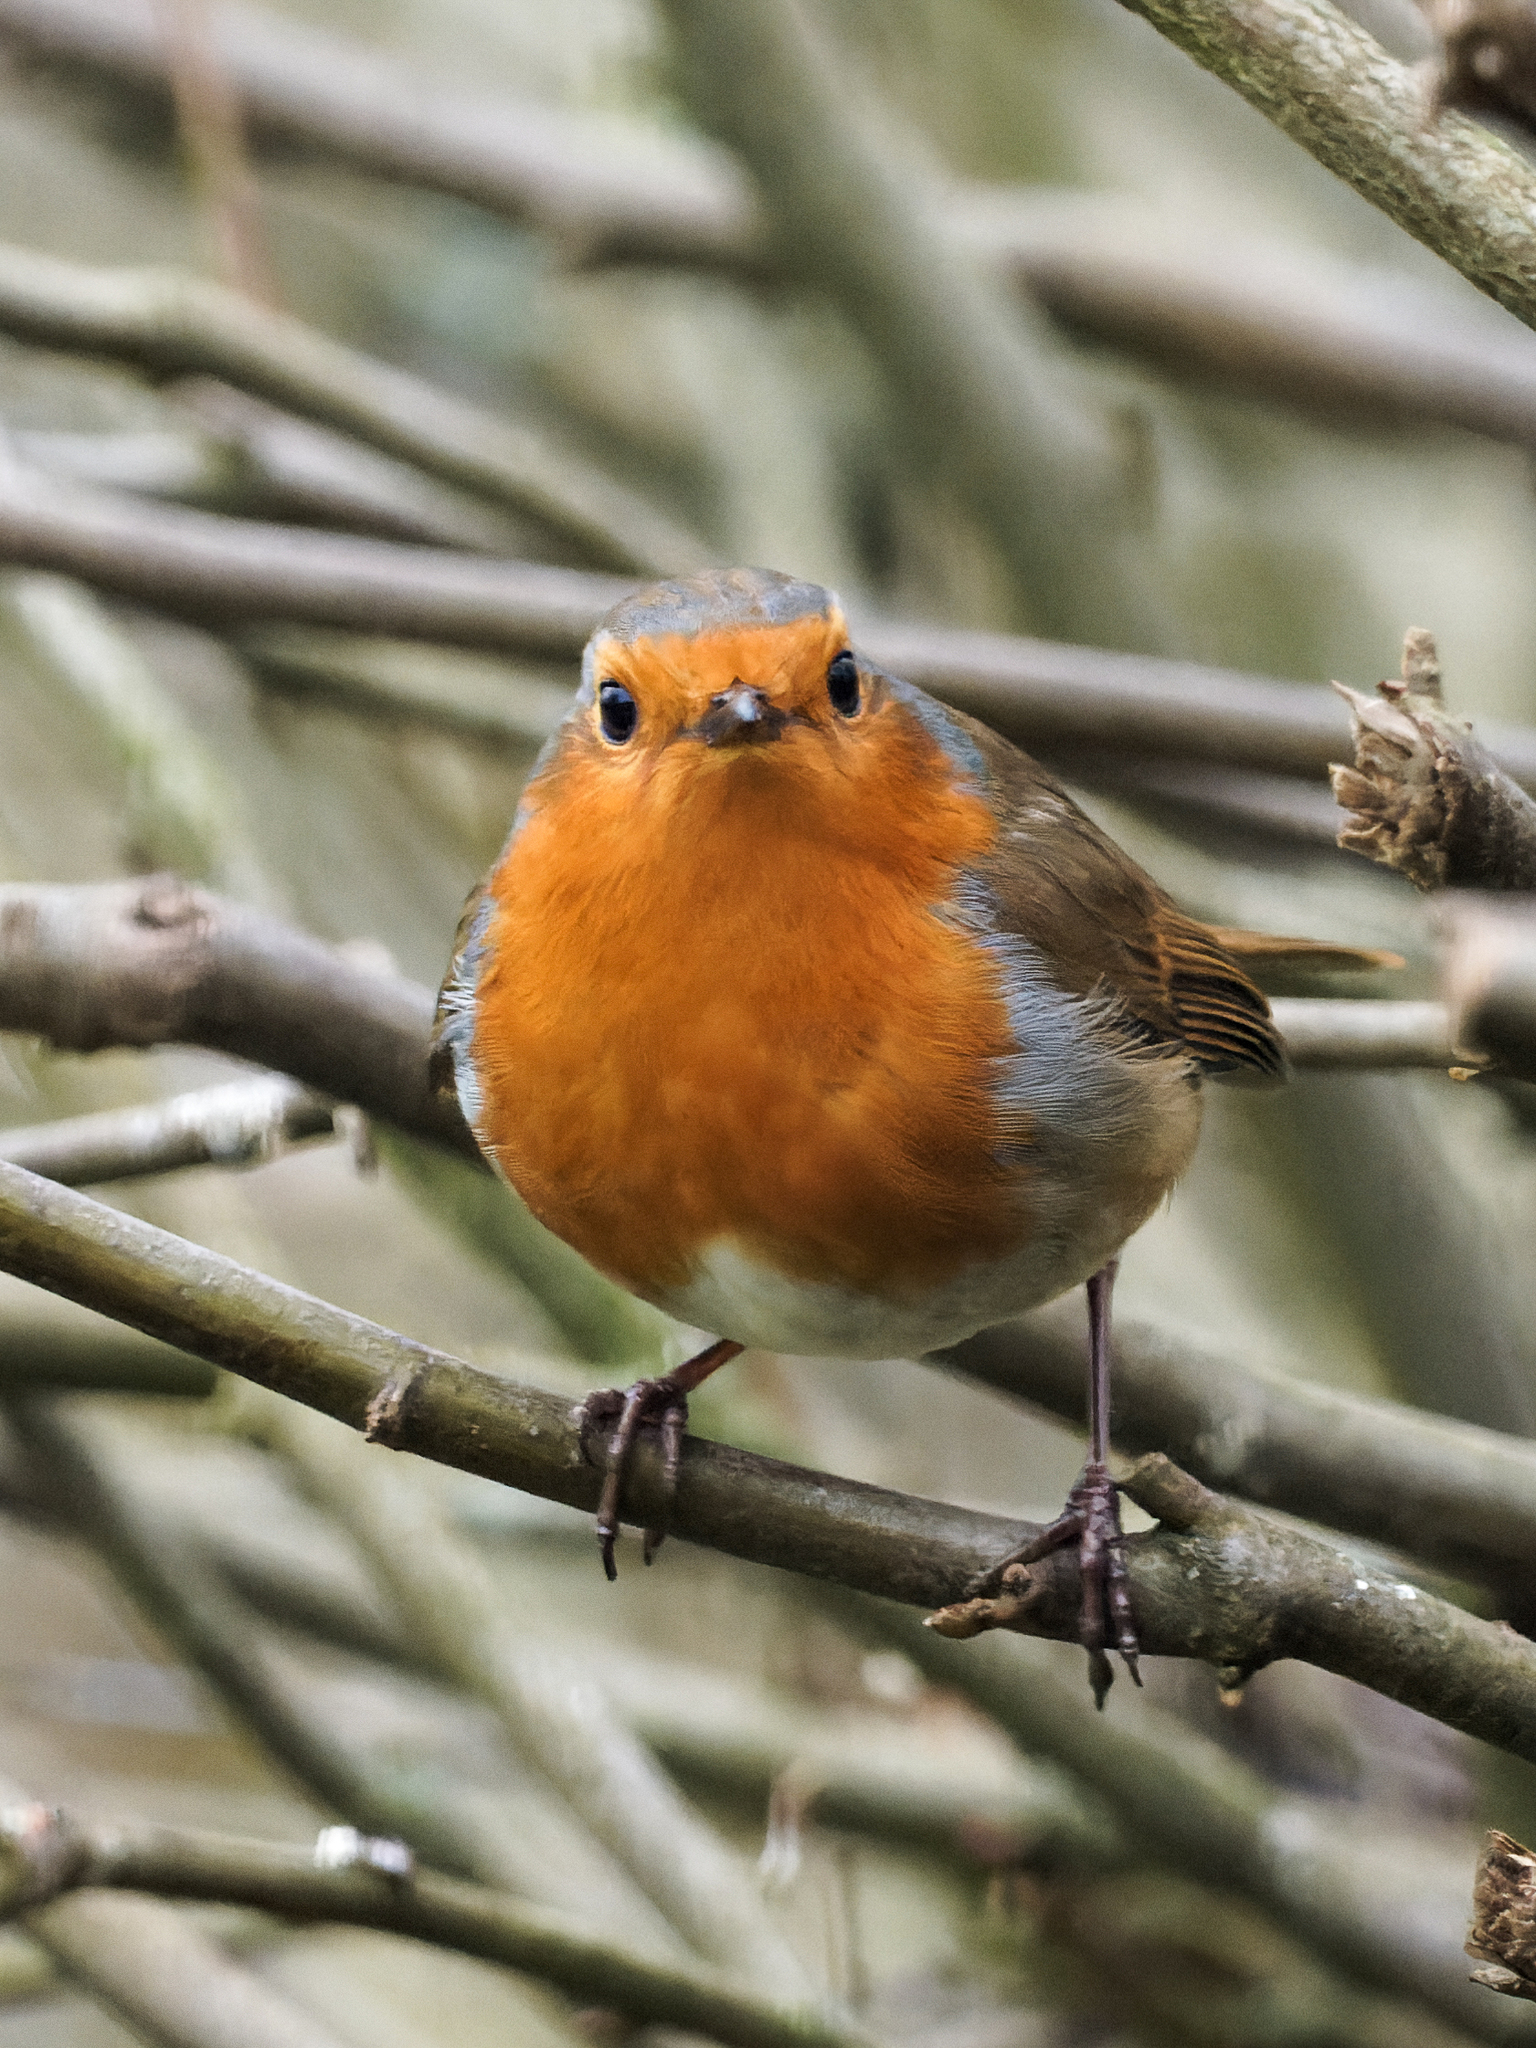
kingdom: Animalia
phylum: Chordata
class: Aves
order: Passeriformes
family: Muscicapidae
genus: Erithacus
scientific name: Erithacus rubecula
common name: European robin
